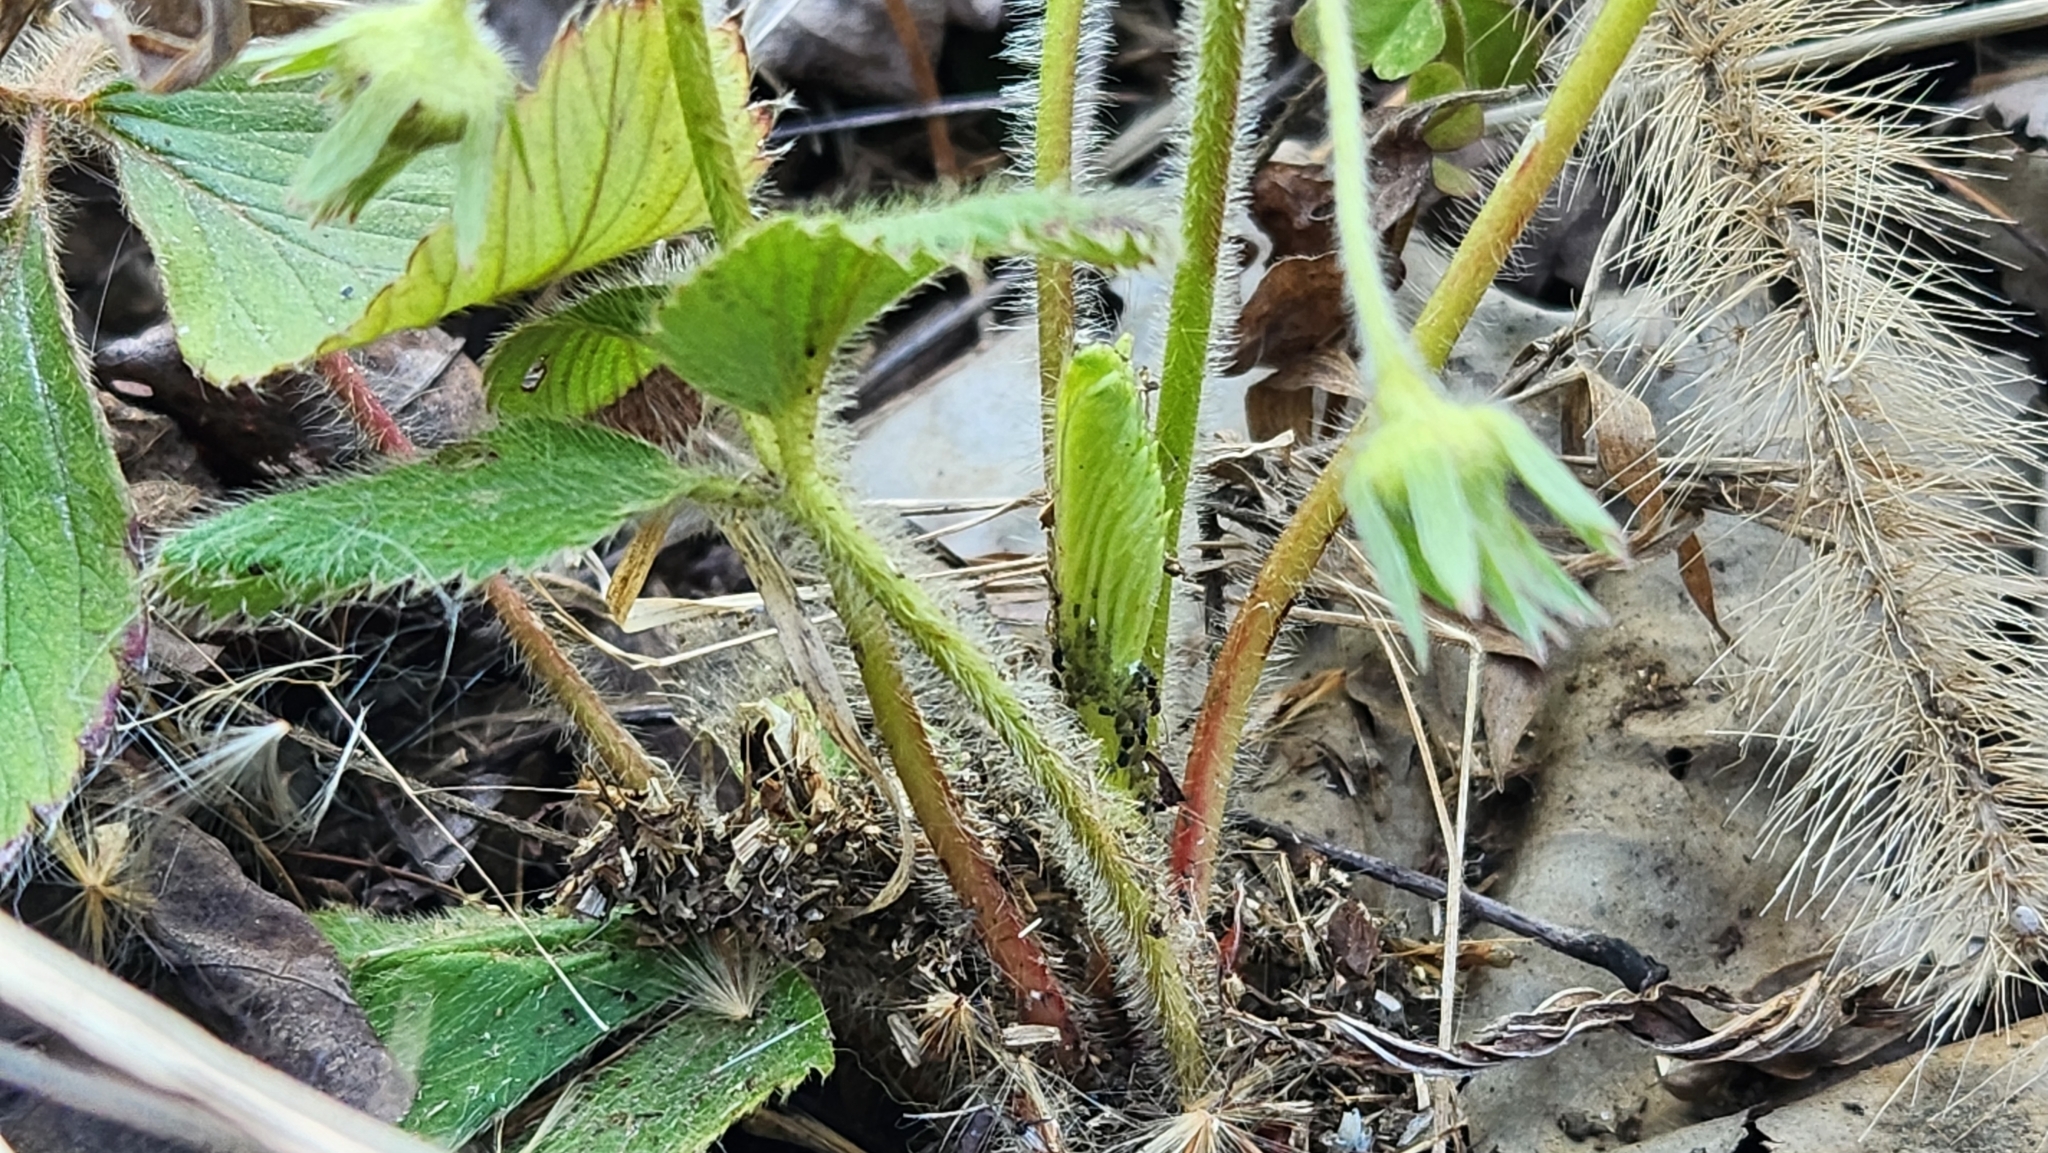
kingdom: Plantae
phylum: Tracheophyta
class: Magnoliopsida
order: Rosales
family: Rosaceae
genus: Fragaria
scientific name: Fragaria virginiana
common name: Thickleaved wild strawberry
